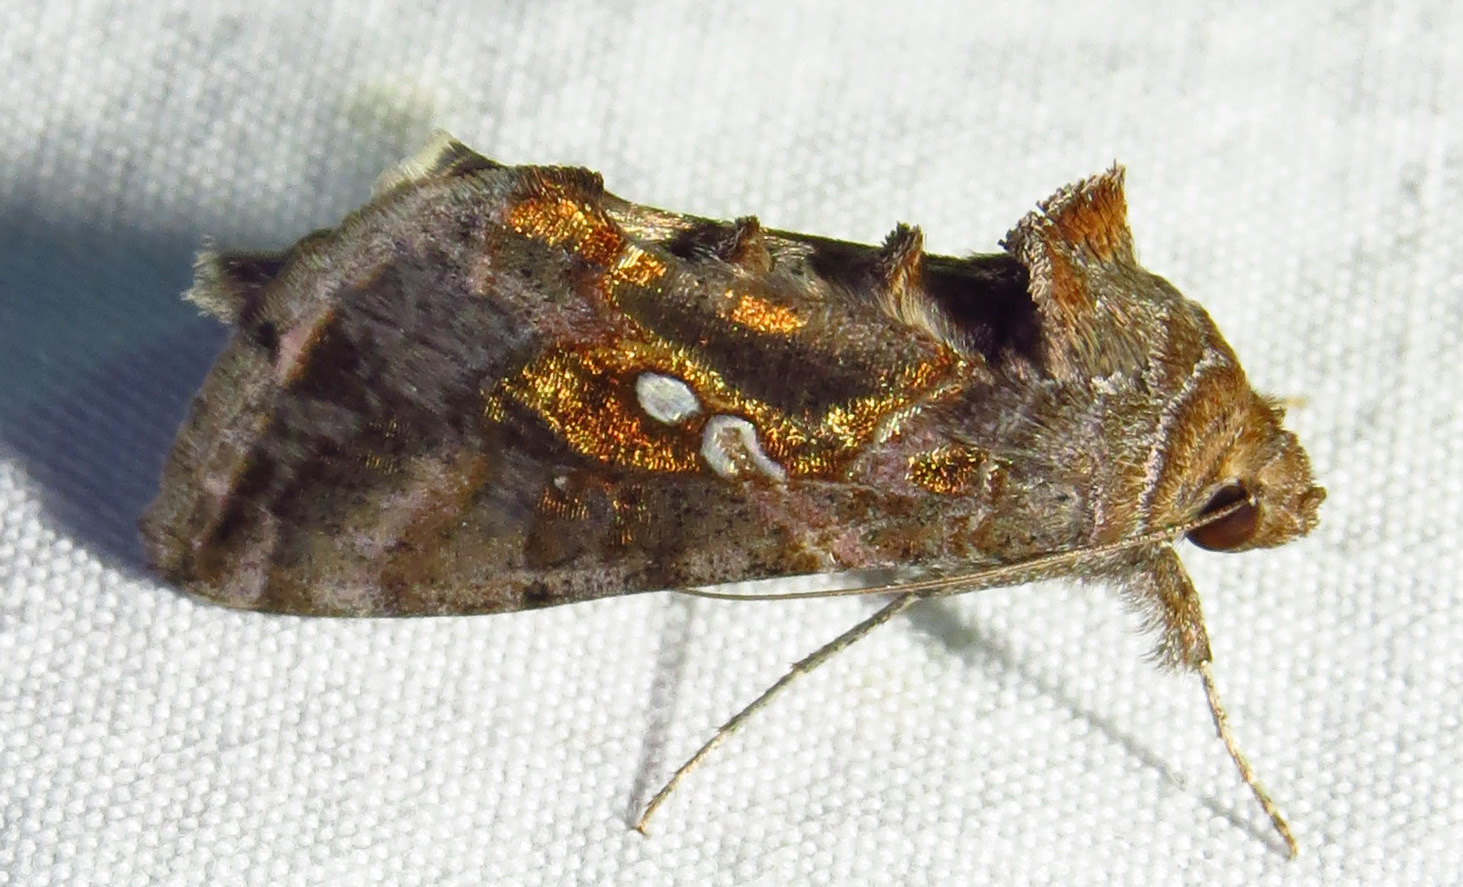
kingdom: Animalia
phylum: Arthropoda
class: Insecta
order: Lepidoptera
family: Noctuidae
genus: Chrysodeixis
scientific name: Chrysodeixis includens
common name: Cutworm moth
